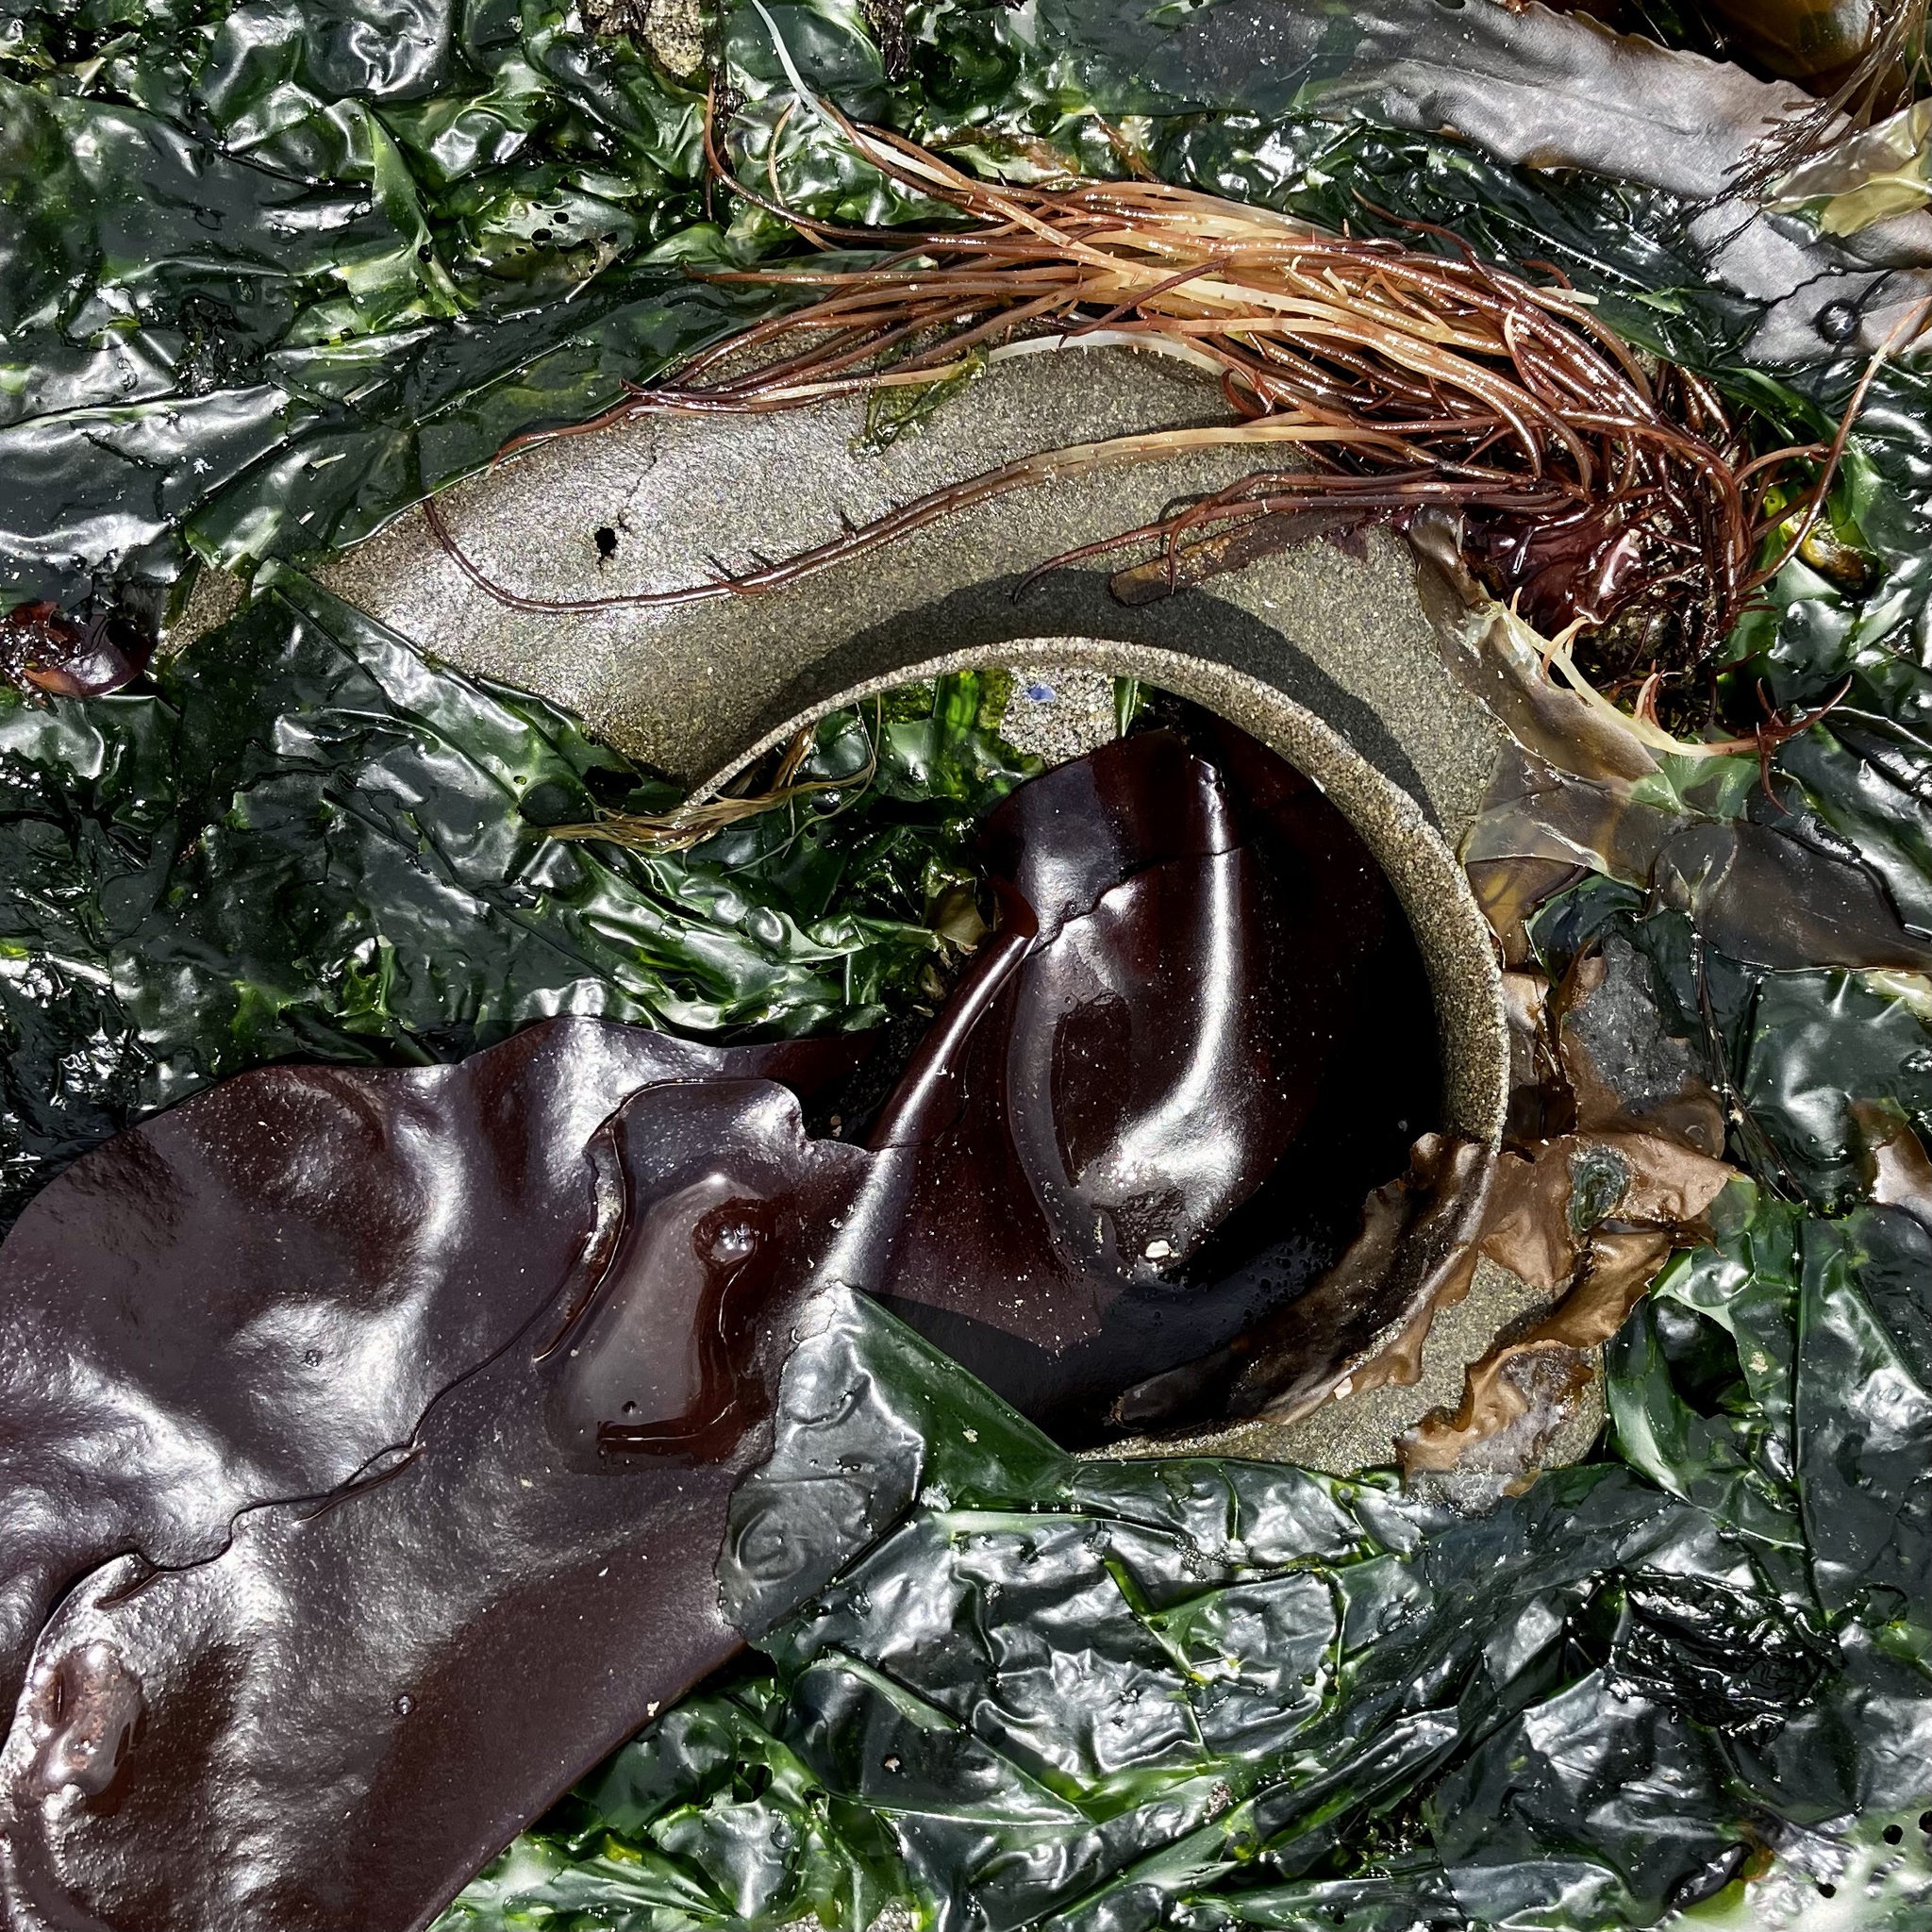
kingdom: Animalia
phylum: Mollusca
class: Gastropoda
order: Littorinimorpha
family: Naticidae
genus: Neverita
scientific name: Neverita lewisii
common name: Lewis' moonsnail
